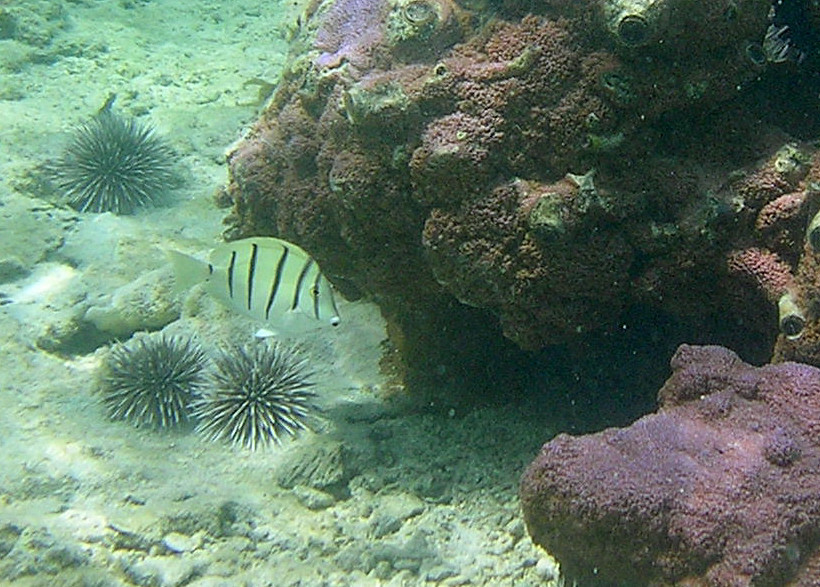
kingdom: Animalia
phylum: Chordata
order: Perciformes
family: Acanthuridae
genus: Acanthurus
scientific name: Acanthurus triostegus
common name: Convict surgeonfish
